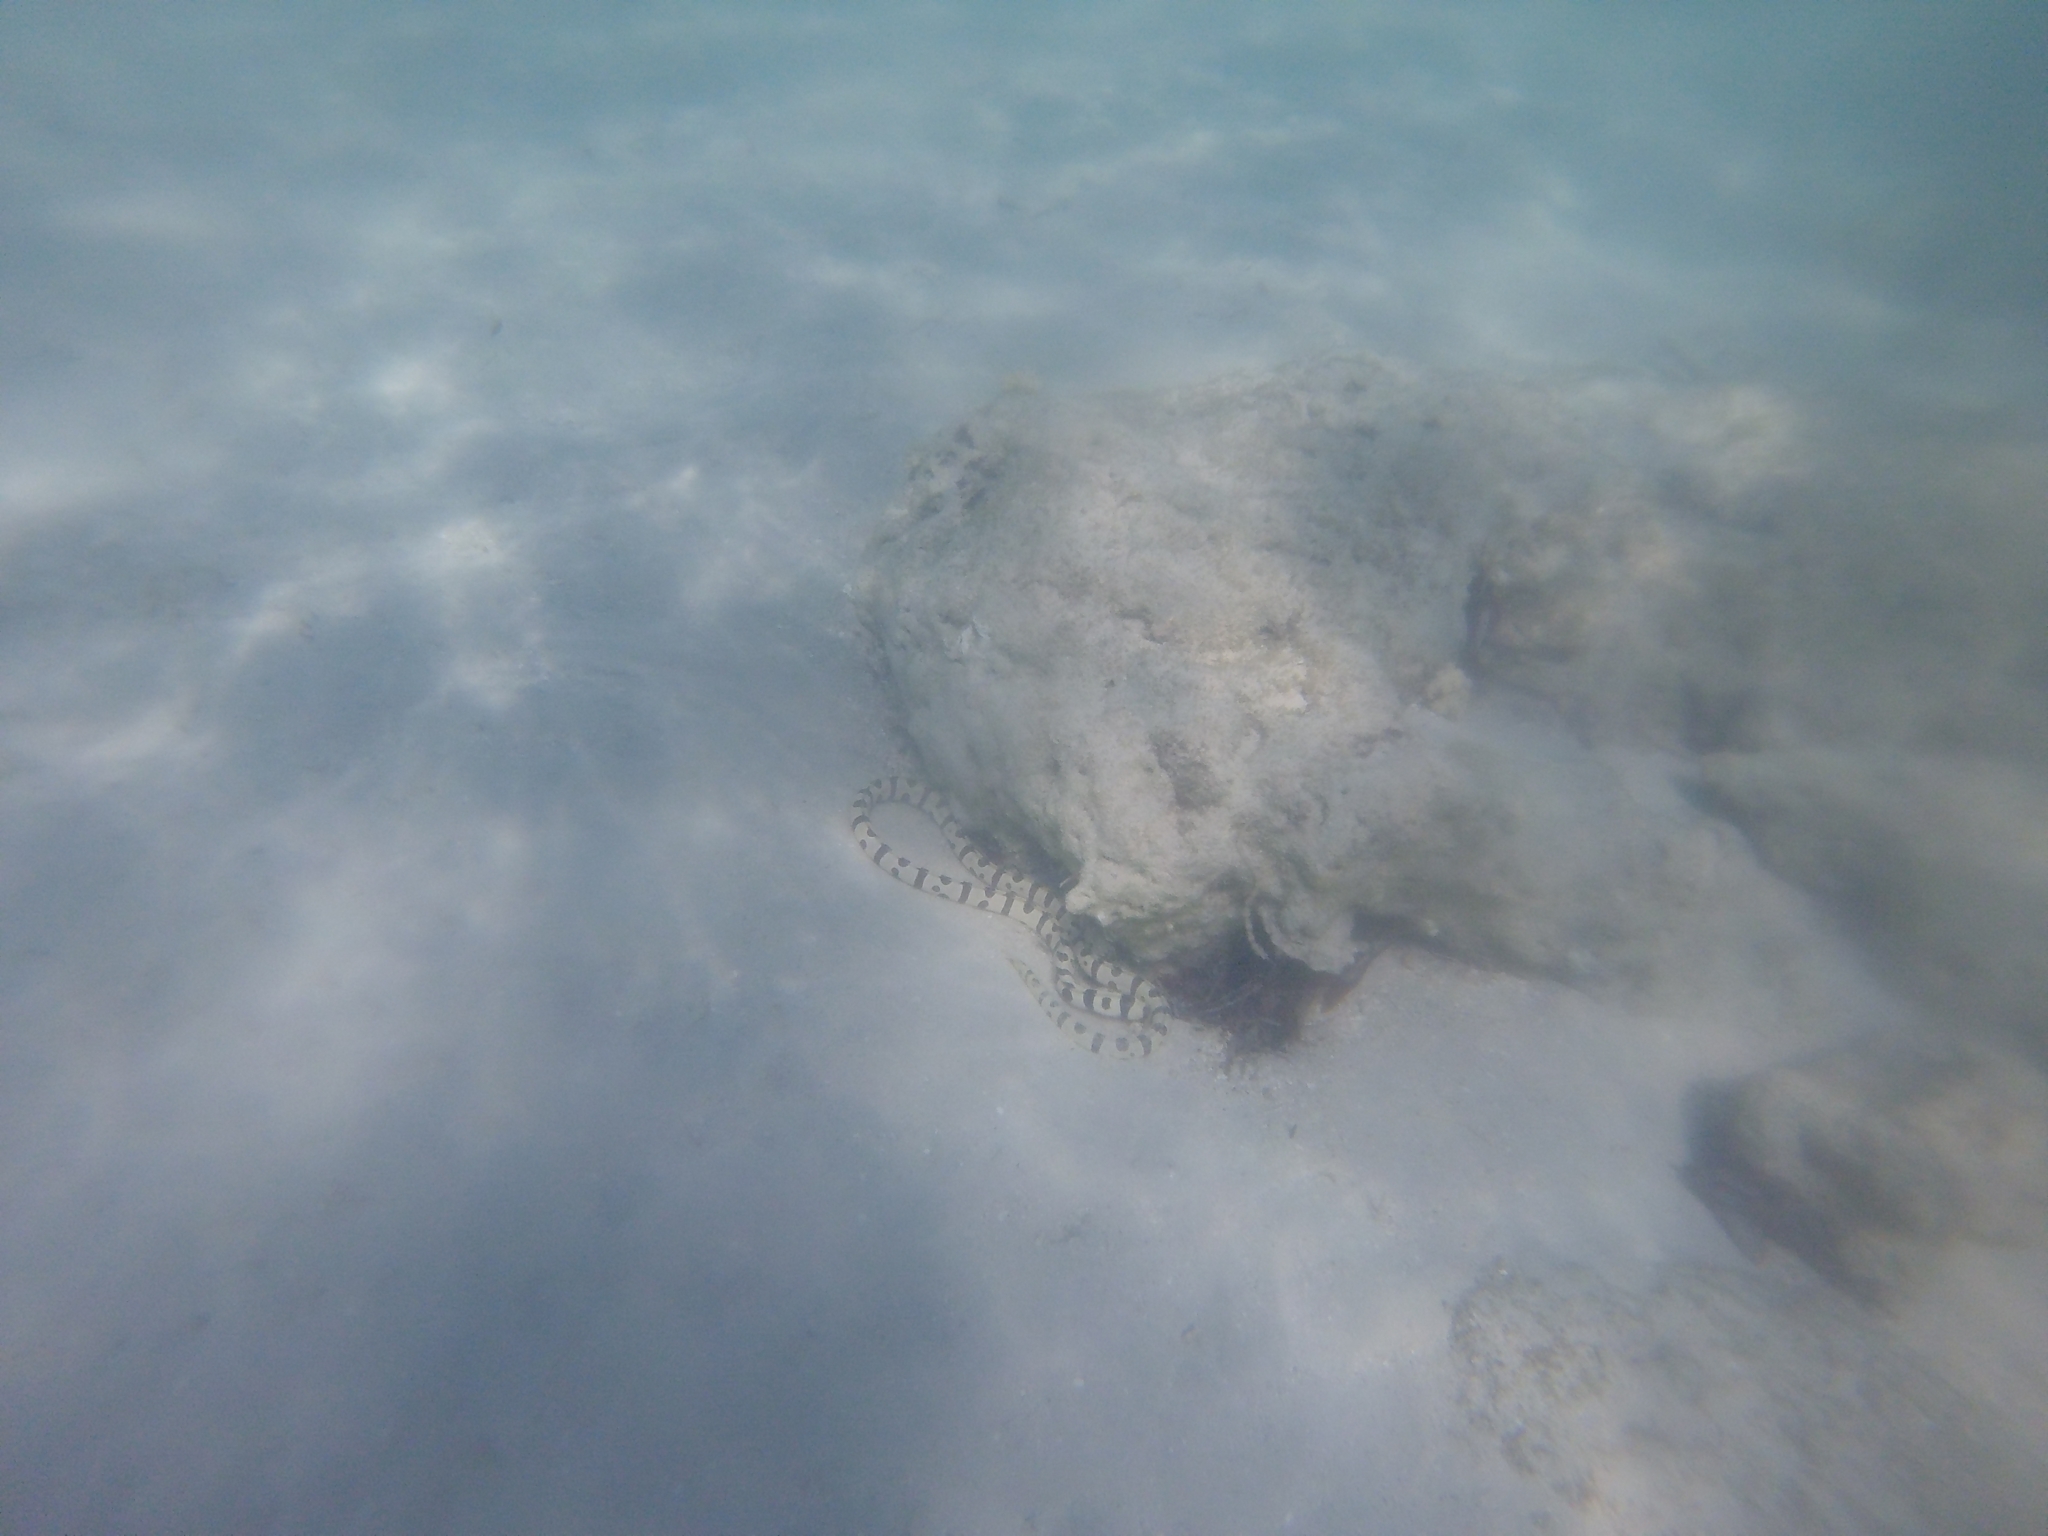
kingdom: Animalia
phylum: Chordata
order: Anguilliformes
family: Ophichthidae
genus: Myrichthys
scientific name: Myrichthys colubrinus
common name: Harlequin snake eel
